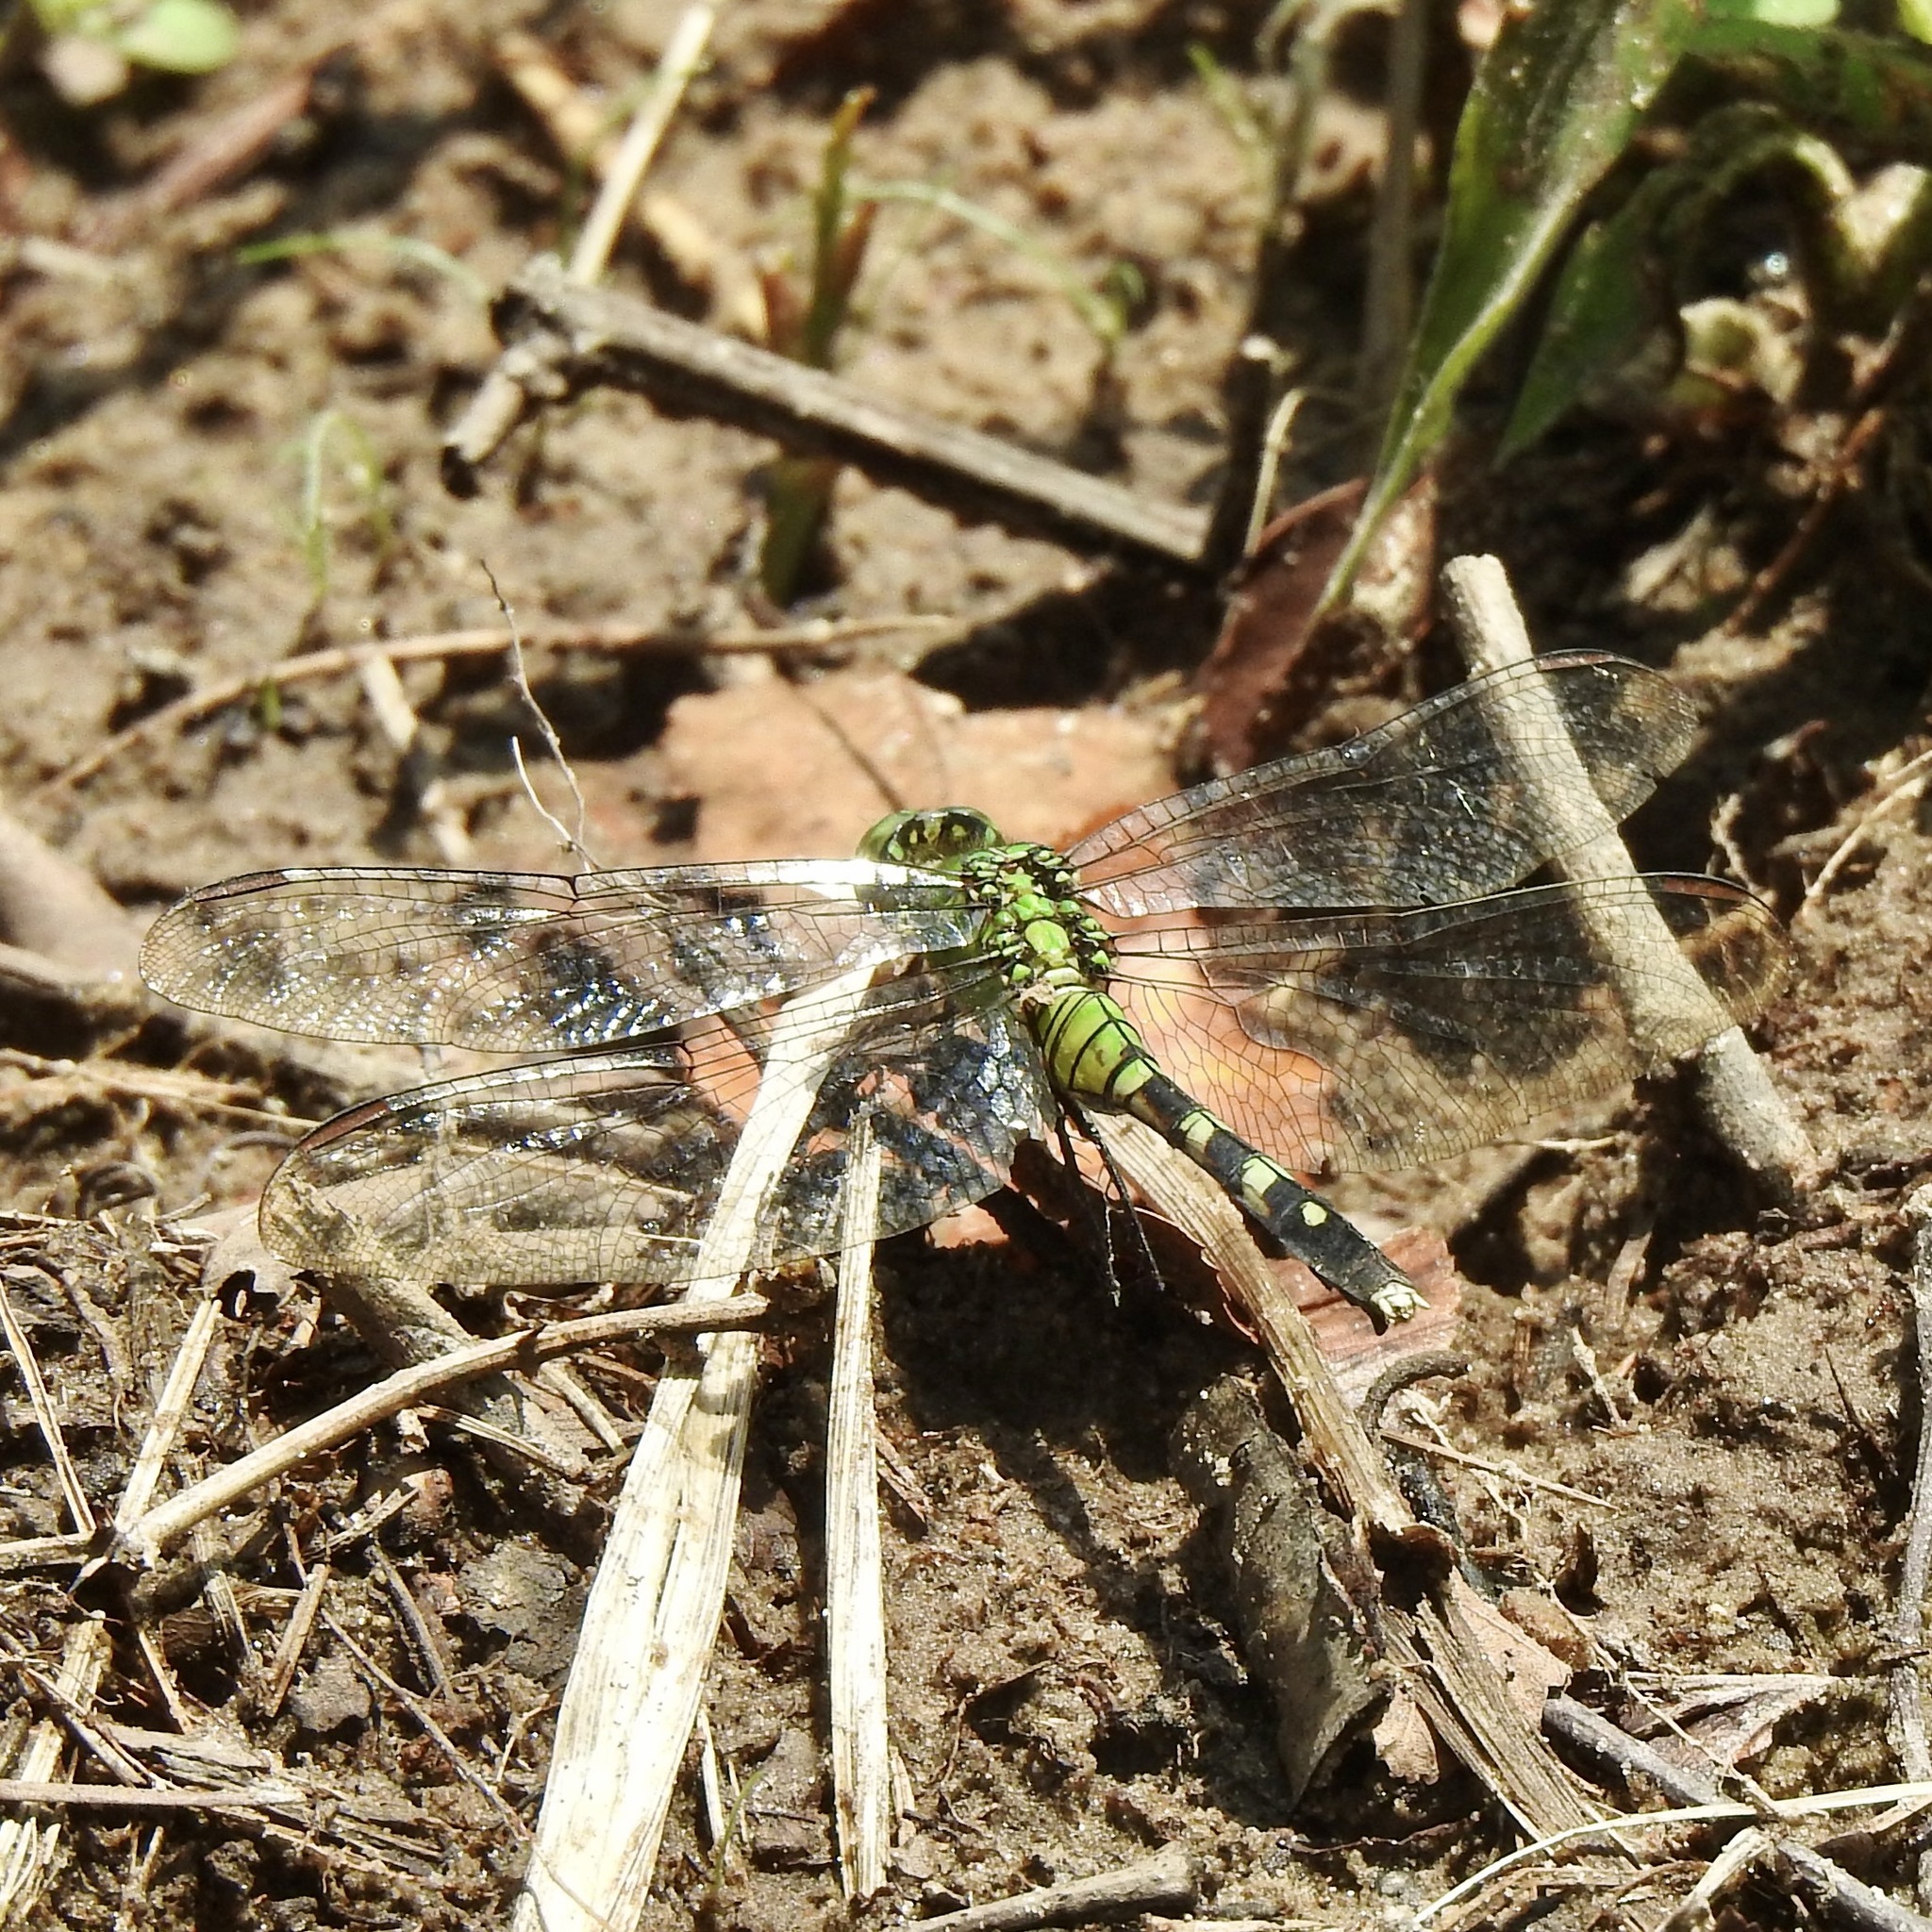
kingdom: Animalia
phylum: Arthropoda
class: Insecta
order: Odonata
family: Libellulidae
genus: Erythemis
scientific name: Erythemis simplicicollis
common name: Eastern pondhawk
